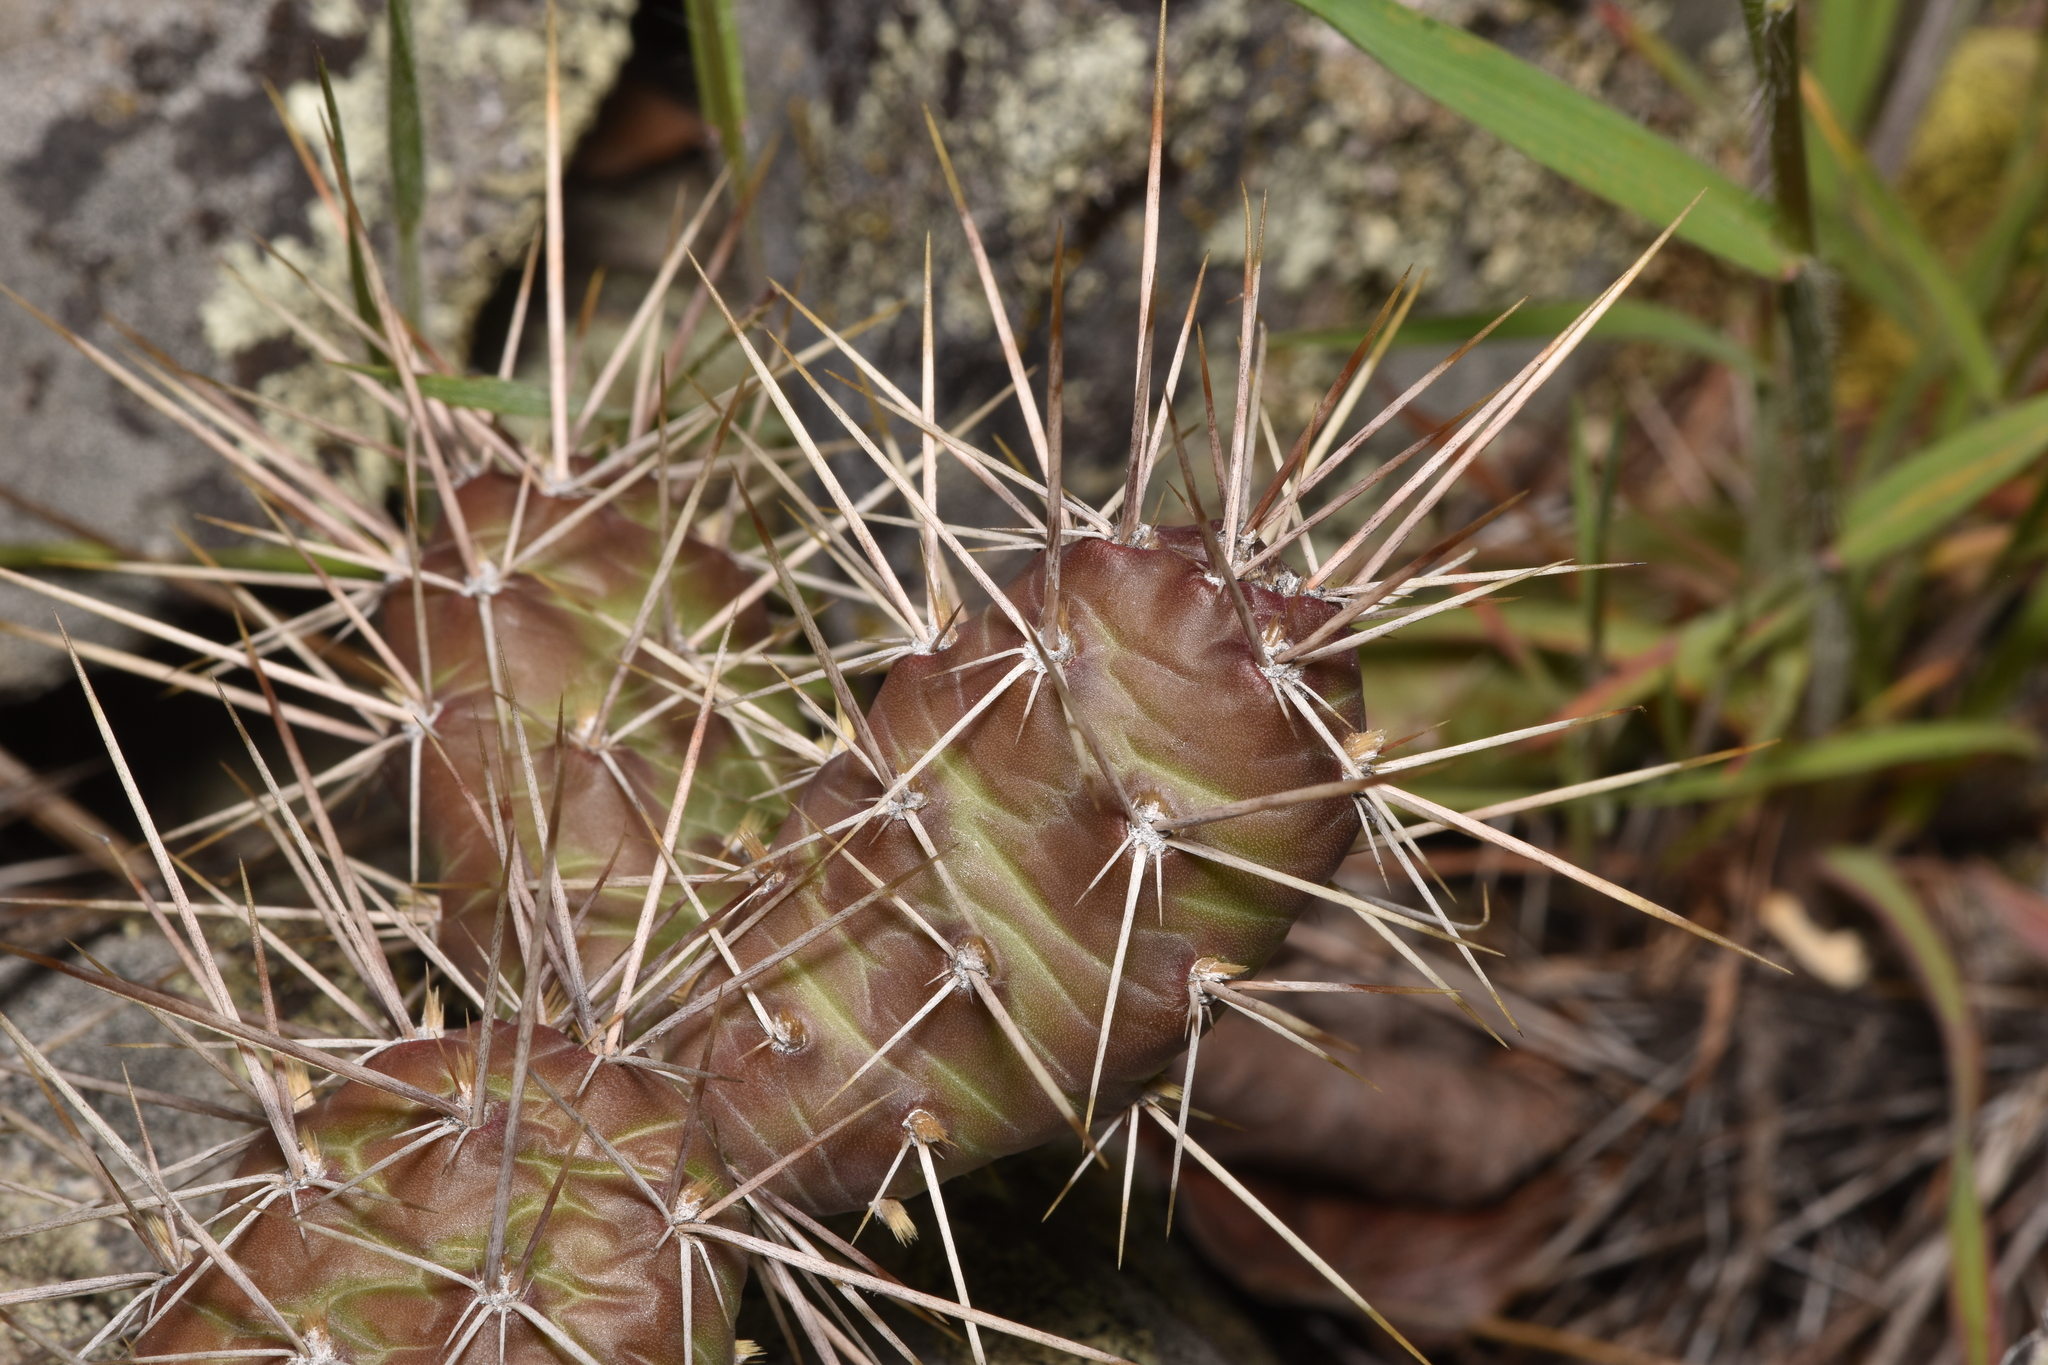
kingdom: Plantae
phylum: Tracheophyta
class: Magnoliopsida
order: Caryophyllales
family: Cactaceae
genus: Opuntia
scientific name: Opuntia fragilis
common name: Brittle cactus
